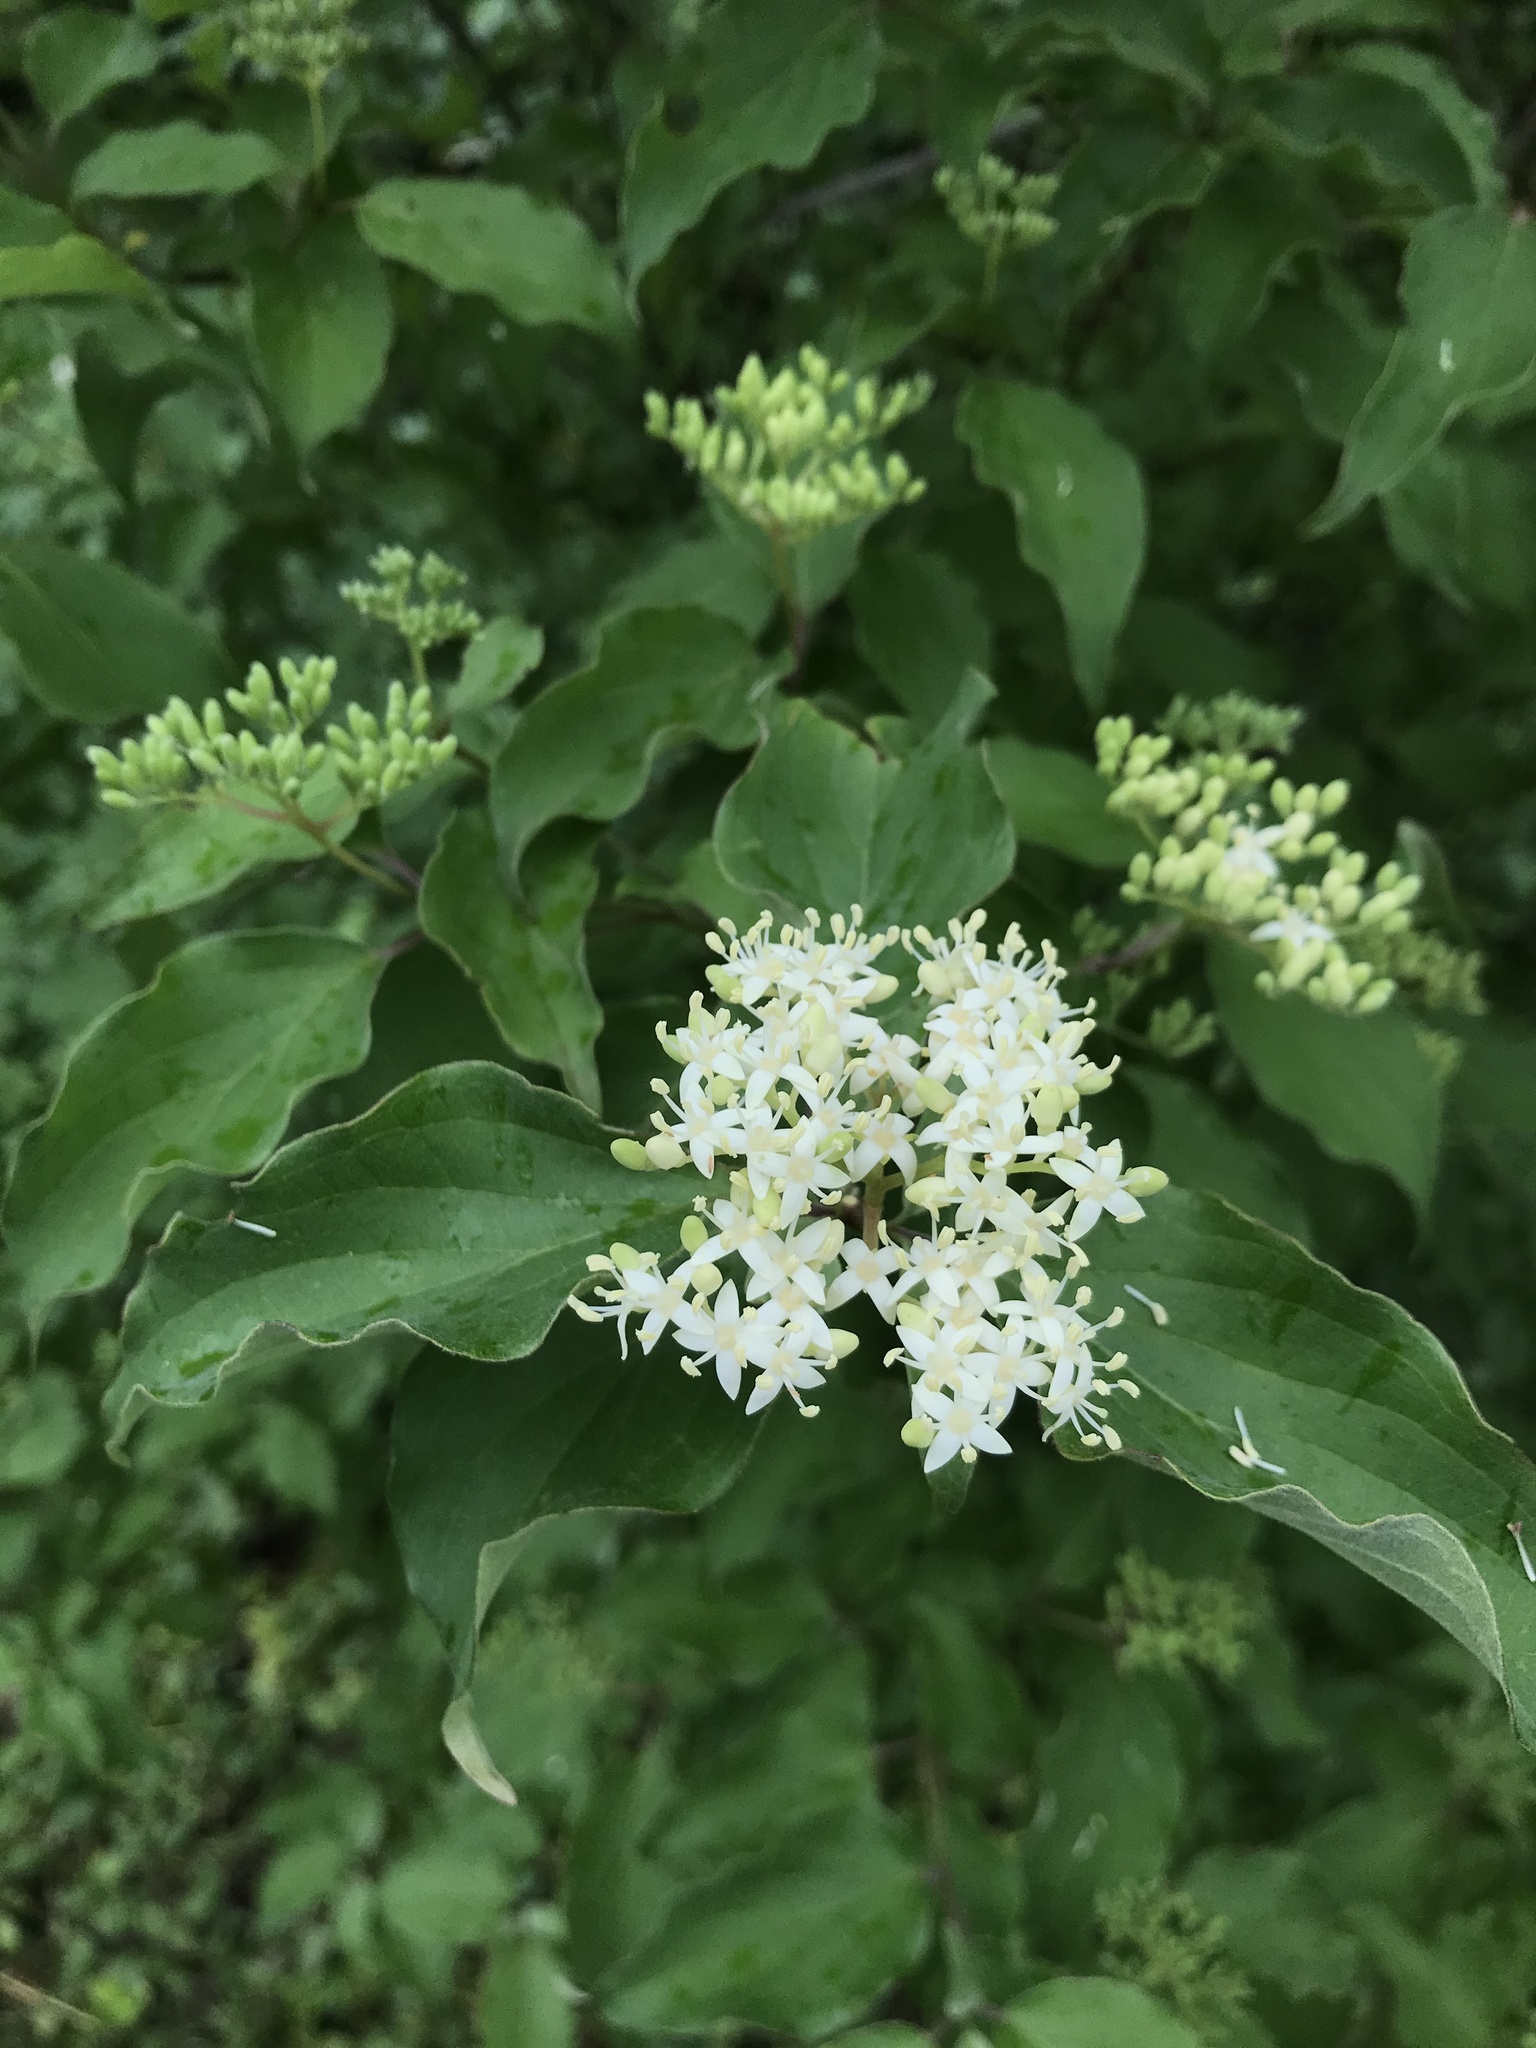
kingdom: Plantae
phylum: Tracheophyta
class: Magnoliopsida
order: Cornales
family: Cornaceae
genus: Cornus
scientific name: Cornus drummondii
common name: Rough-leaf dogwood
